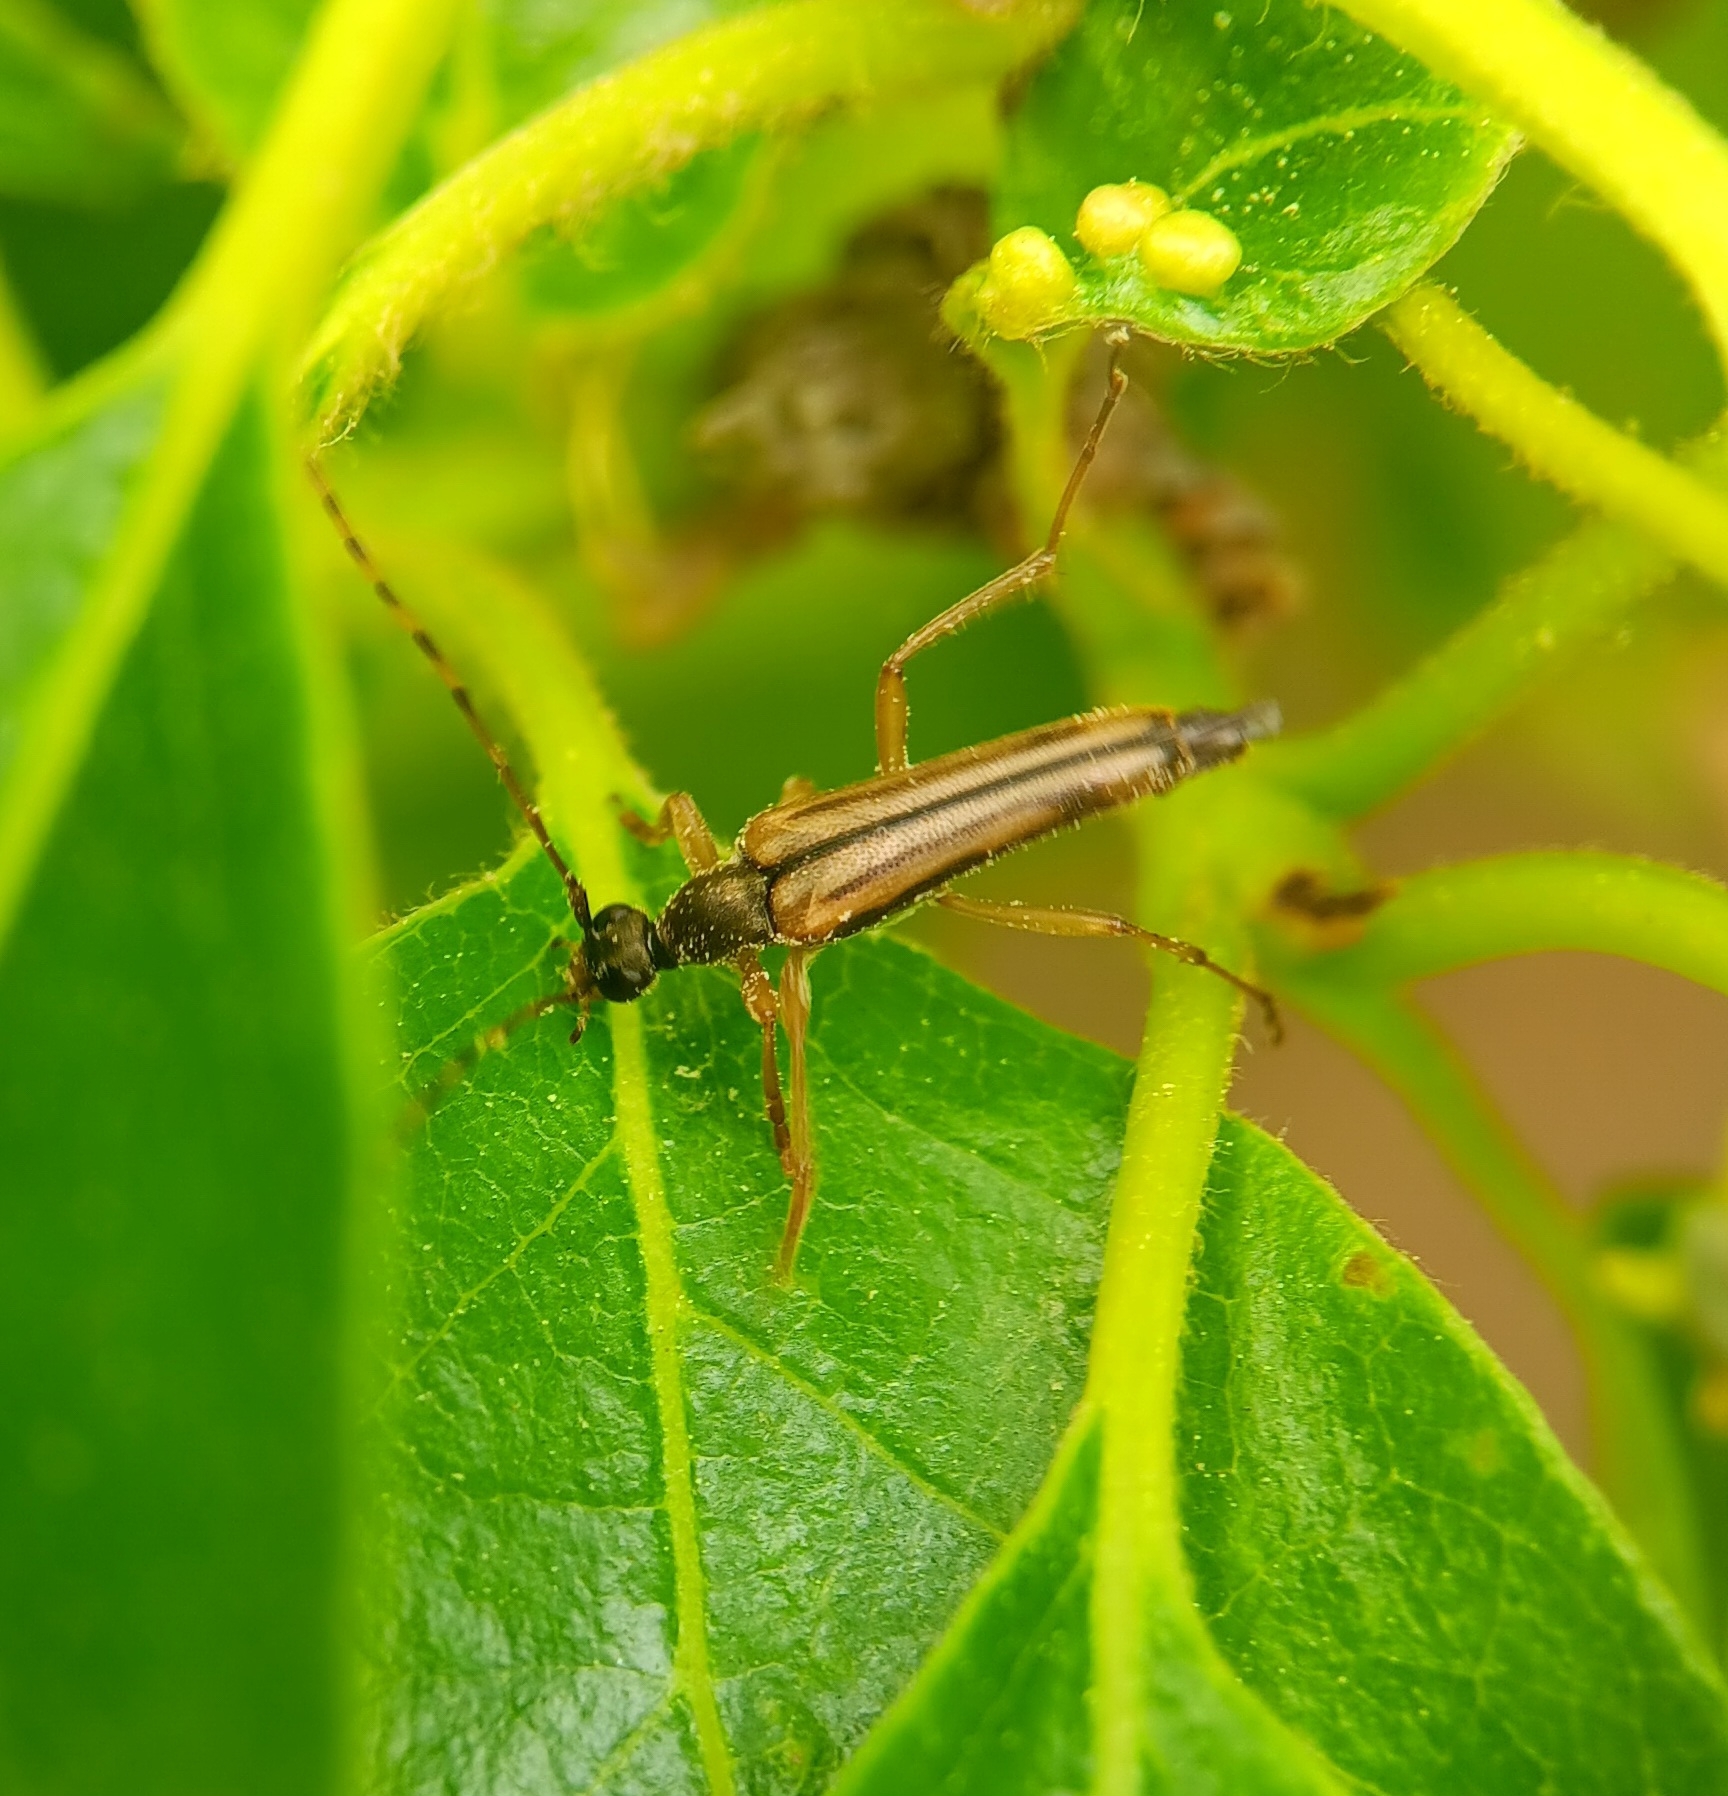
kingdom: Animalia
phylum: Arthropoda
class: Insecta
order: Coleoptera
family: Cerambycidae
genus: Analeptura
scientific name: Analeptura lineola
